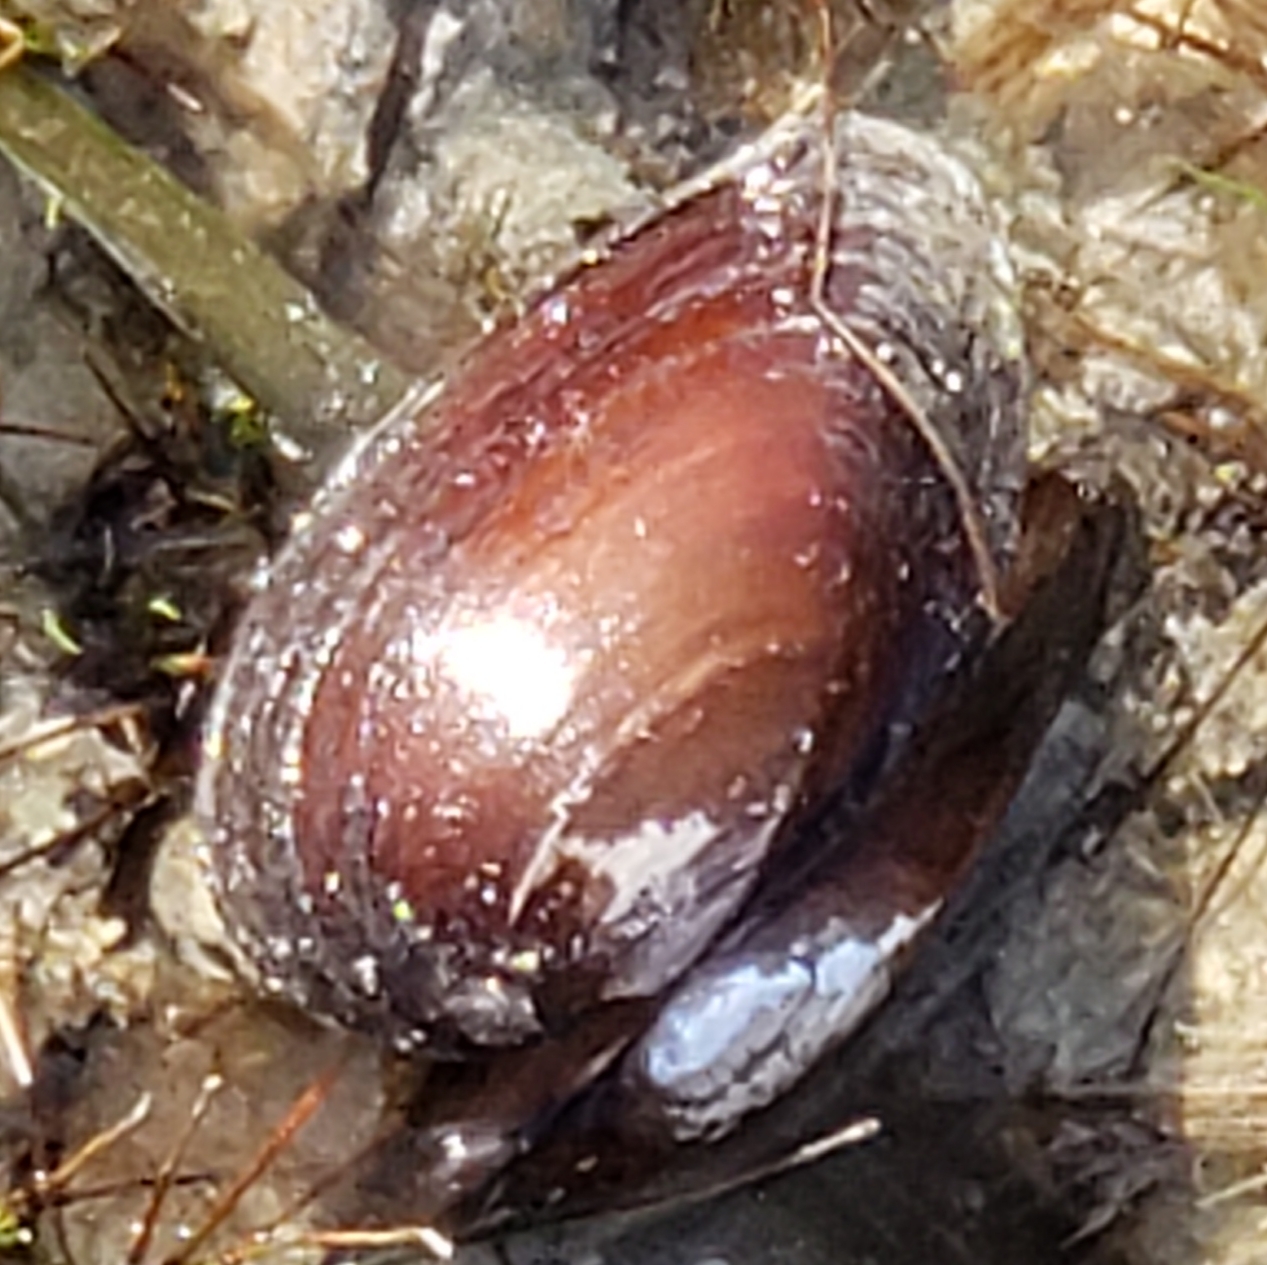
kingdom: Animalia
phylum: Mollusca
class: Bivalvia
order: Unionida
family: Unionidae
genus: Elliptio
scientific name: Elliptio jayensis
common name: Florida spike
